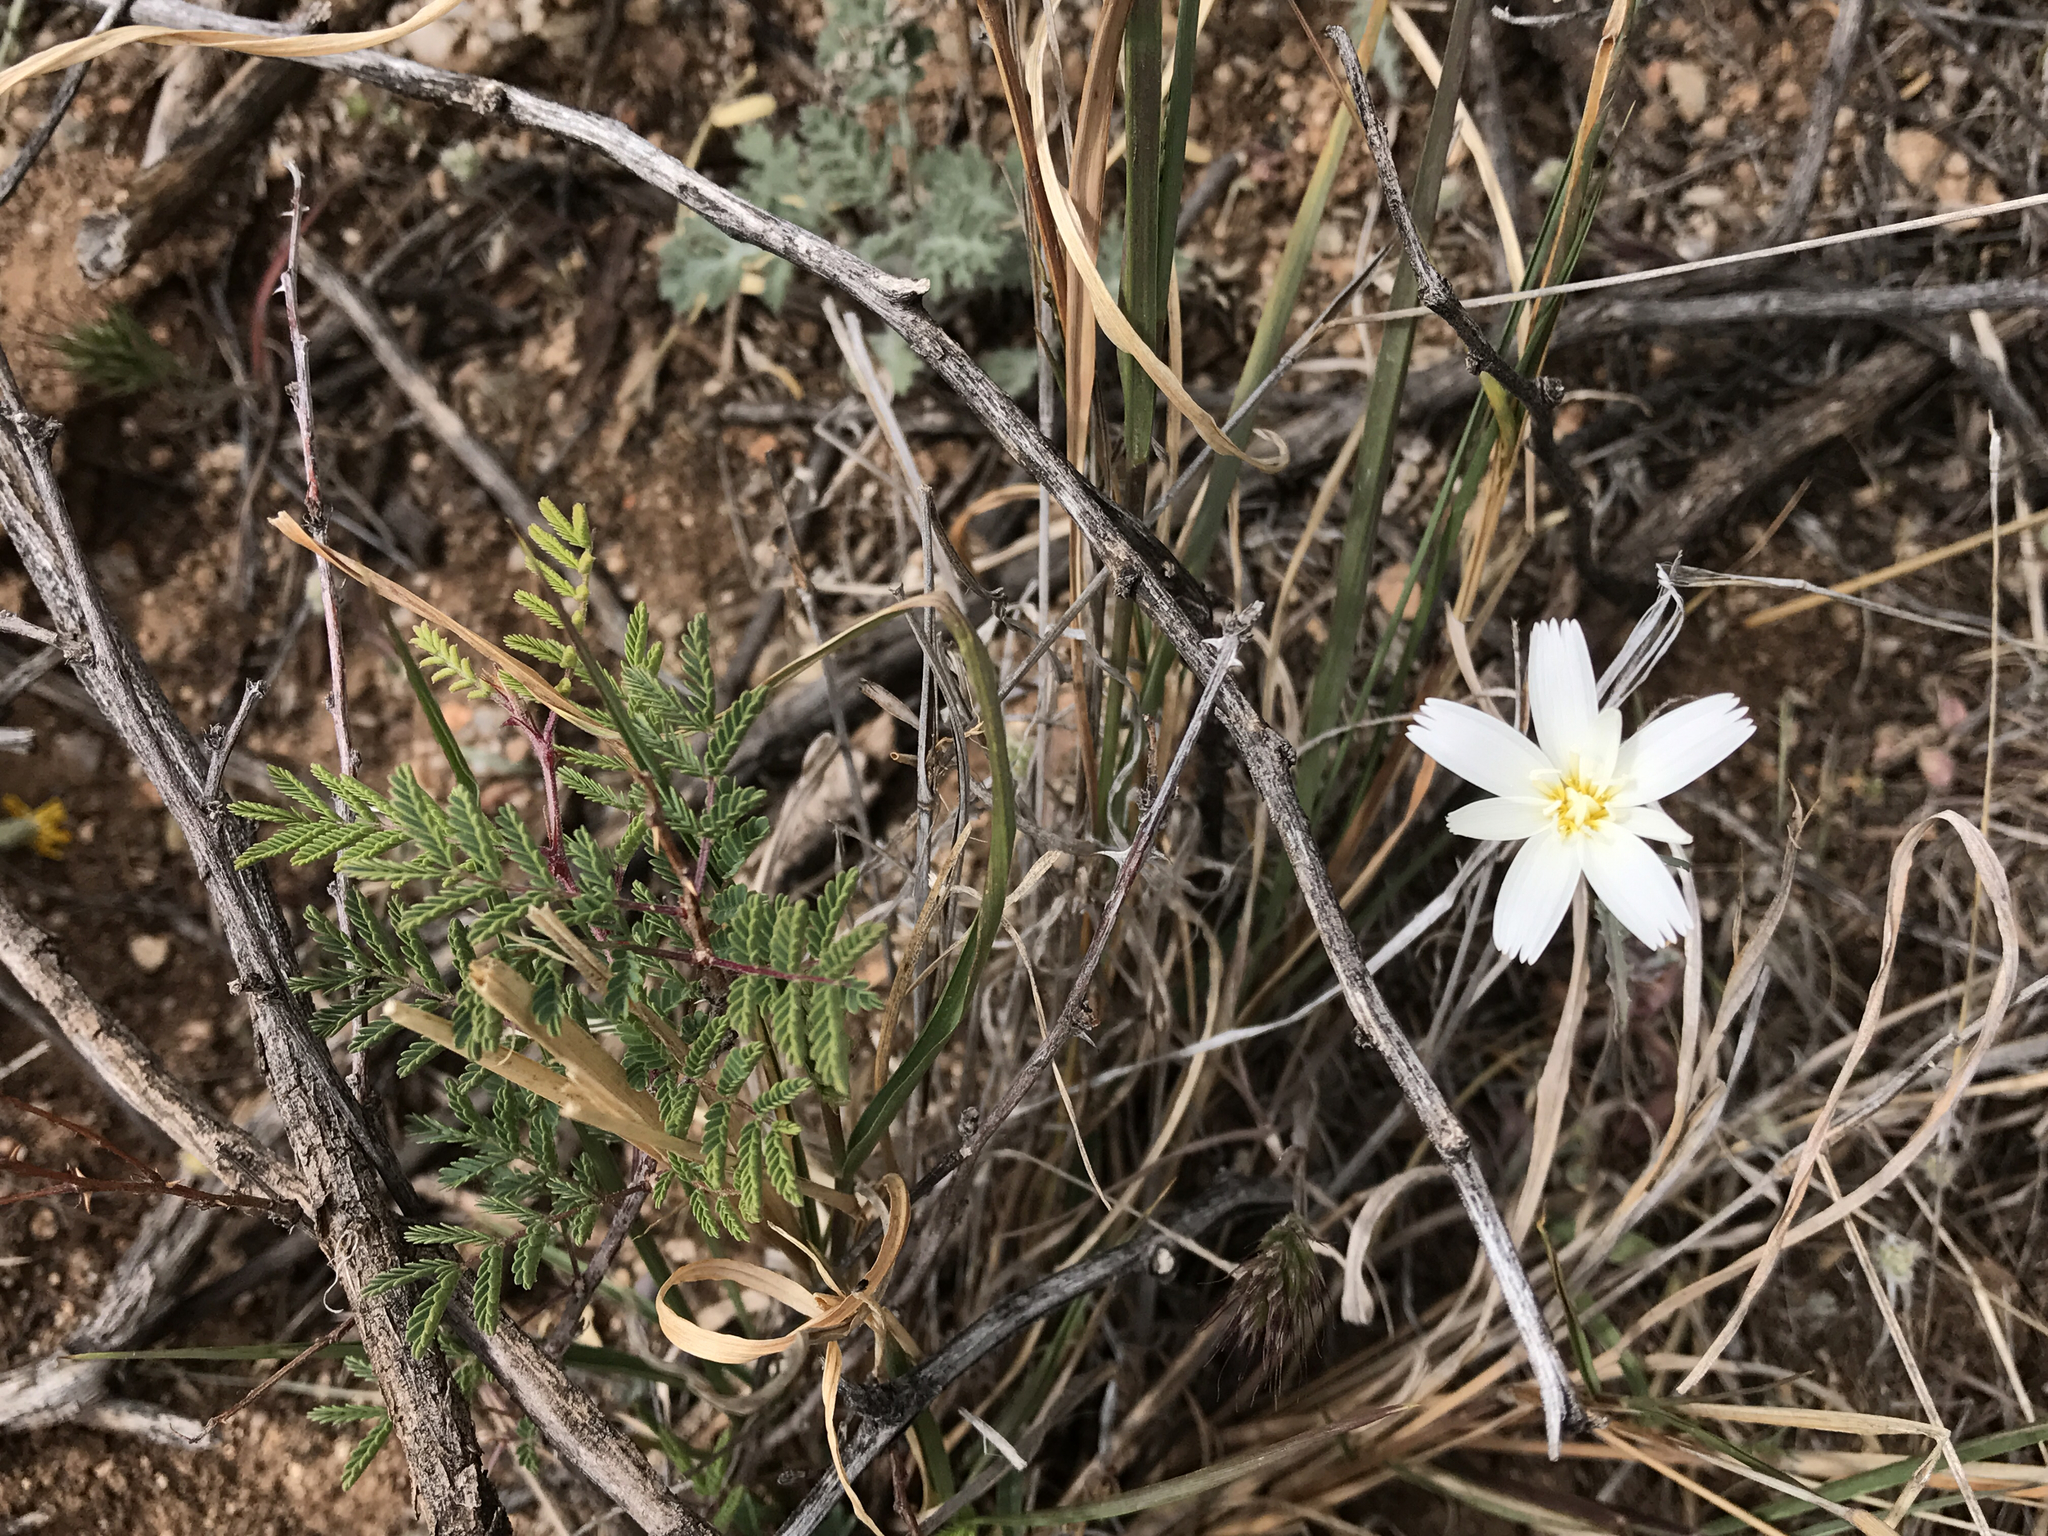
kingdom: Plantae
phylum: Tracheophyta
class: Magnoliopsida
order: Asterales
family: Asteraceae
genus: Rafinesquia
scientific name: Rafinesquia neomexicana
